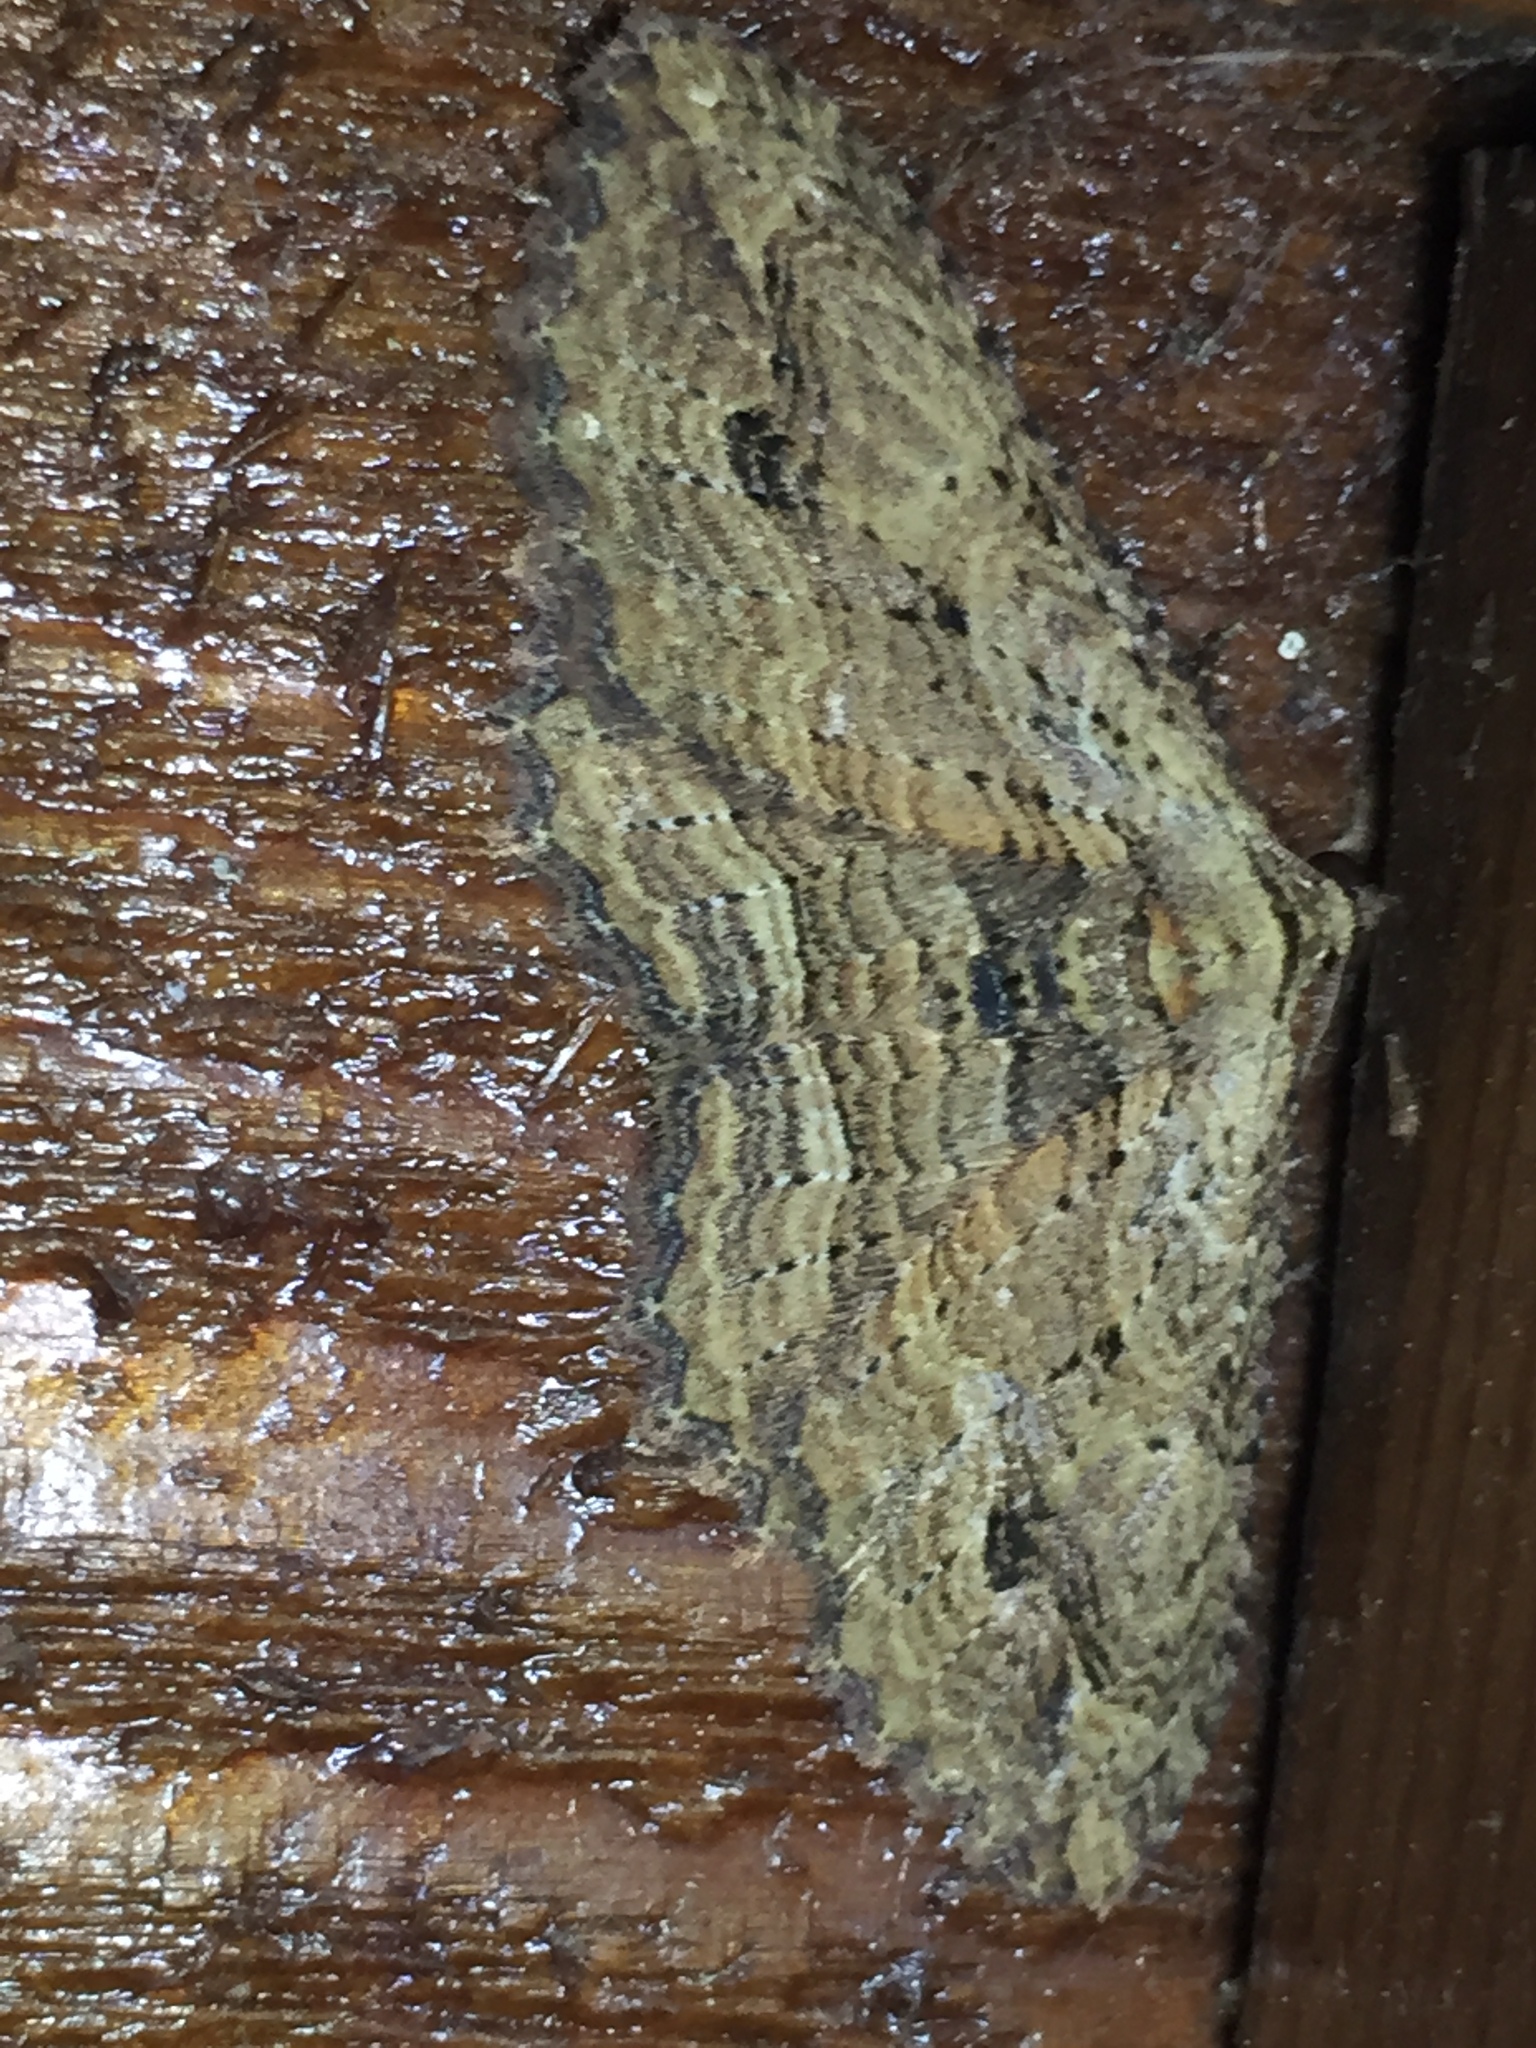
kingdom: Animalia
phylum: Arthropoda
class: Insecta
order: Lepidoptera
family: Geometridae
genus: Austrocidaria
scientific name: Austrocidaria bipartita
